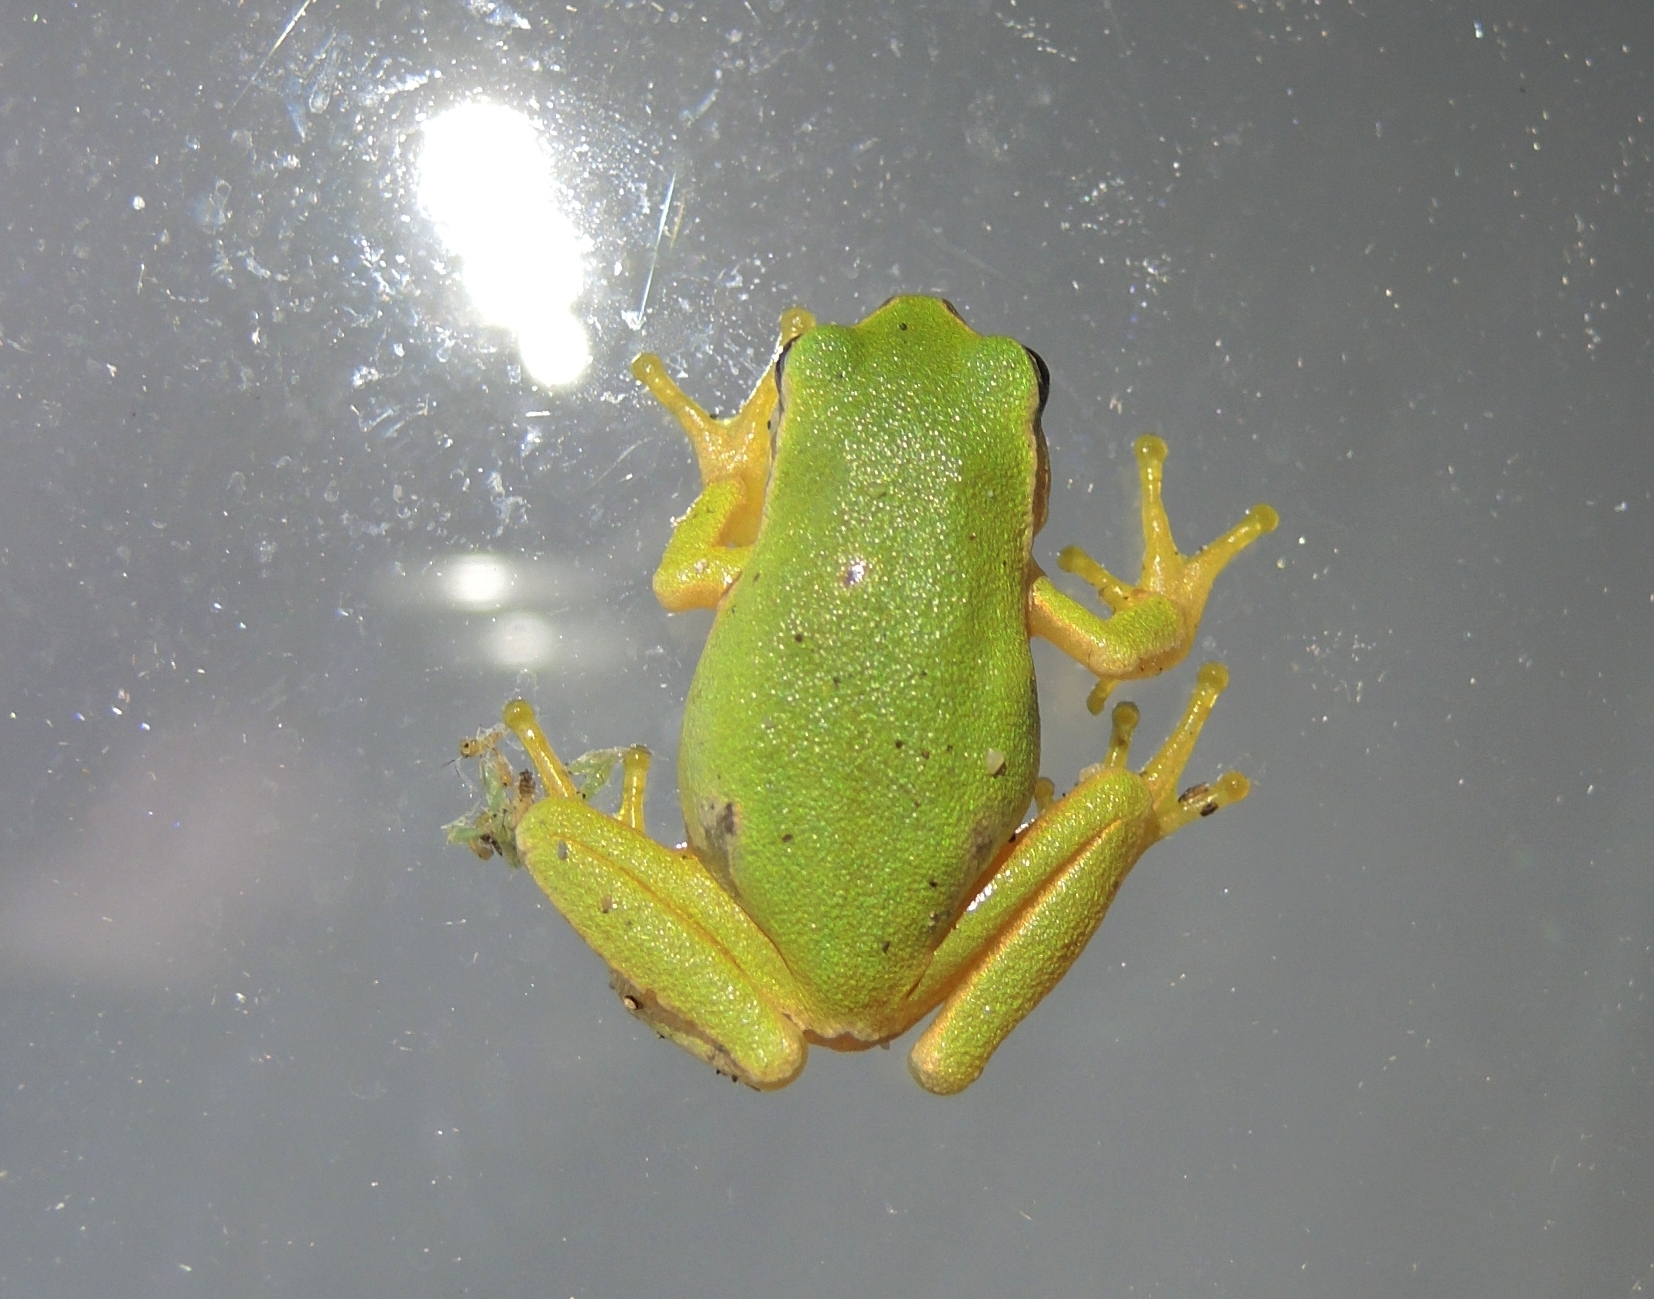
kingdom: Animalia
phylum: Chordata
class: Amphibia
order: Anura
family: Hylidae
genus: Hyla
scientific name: Hyla orientalis
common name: Caucasian treefrog
